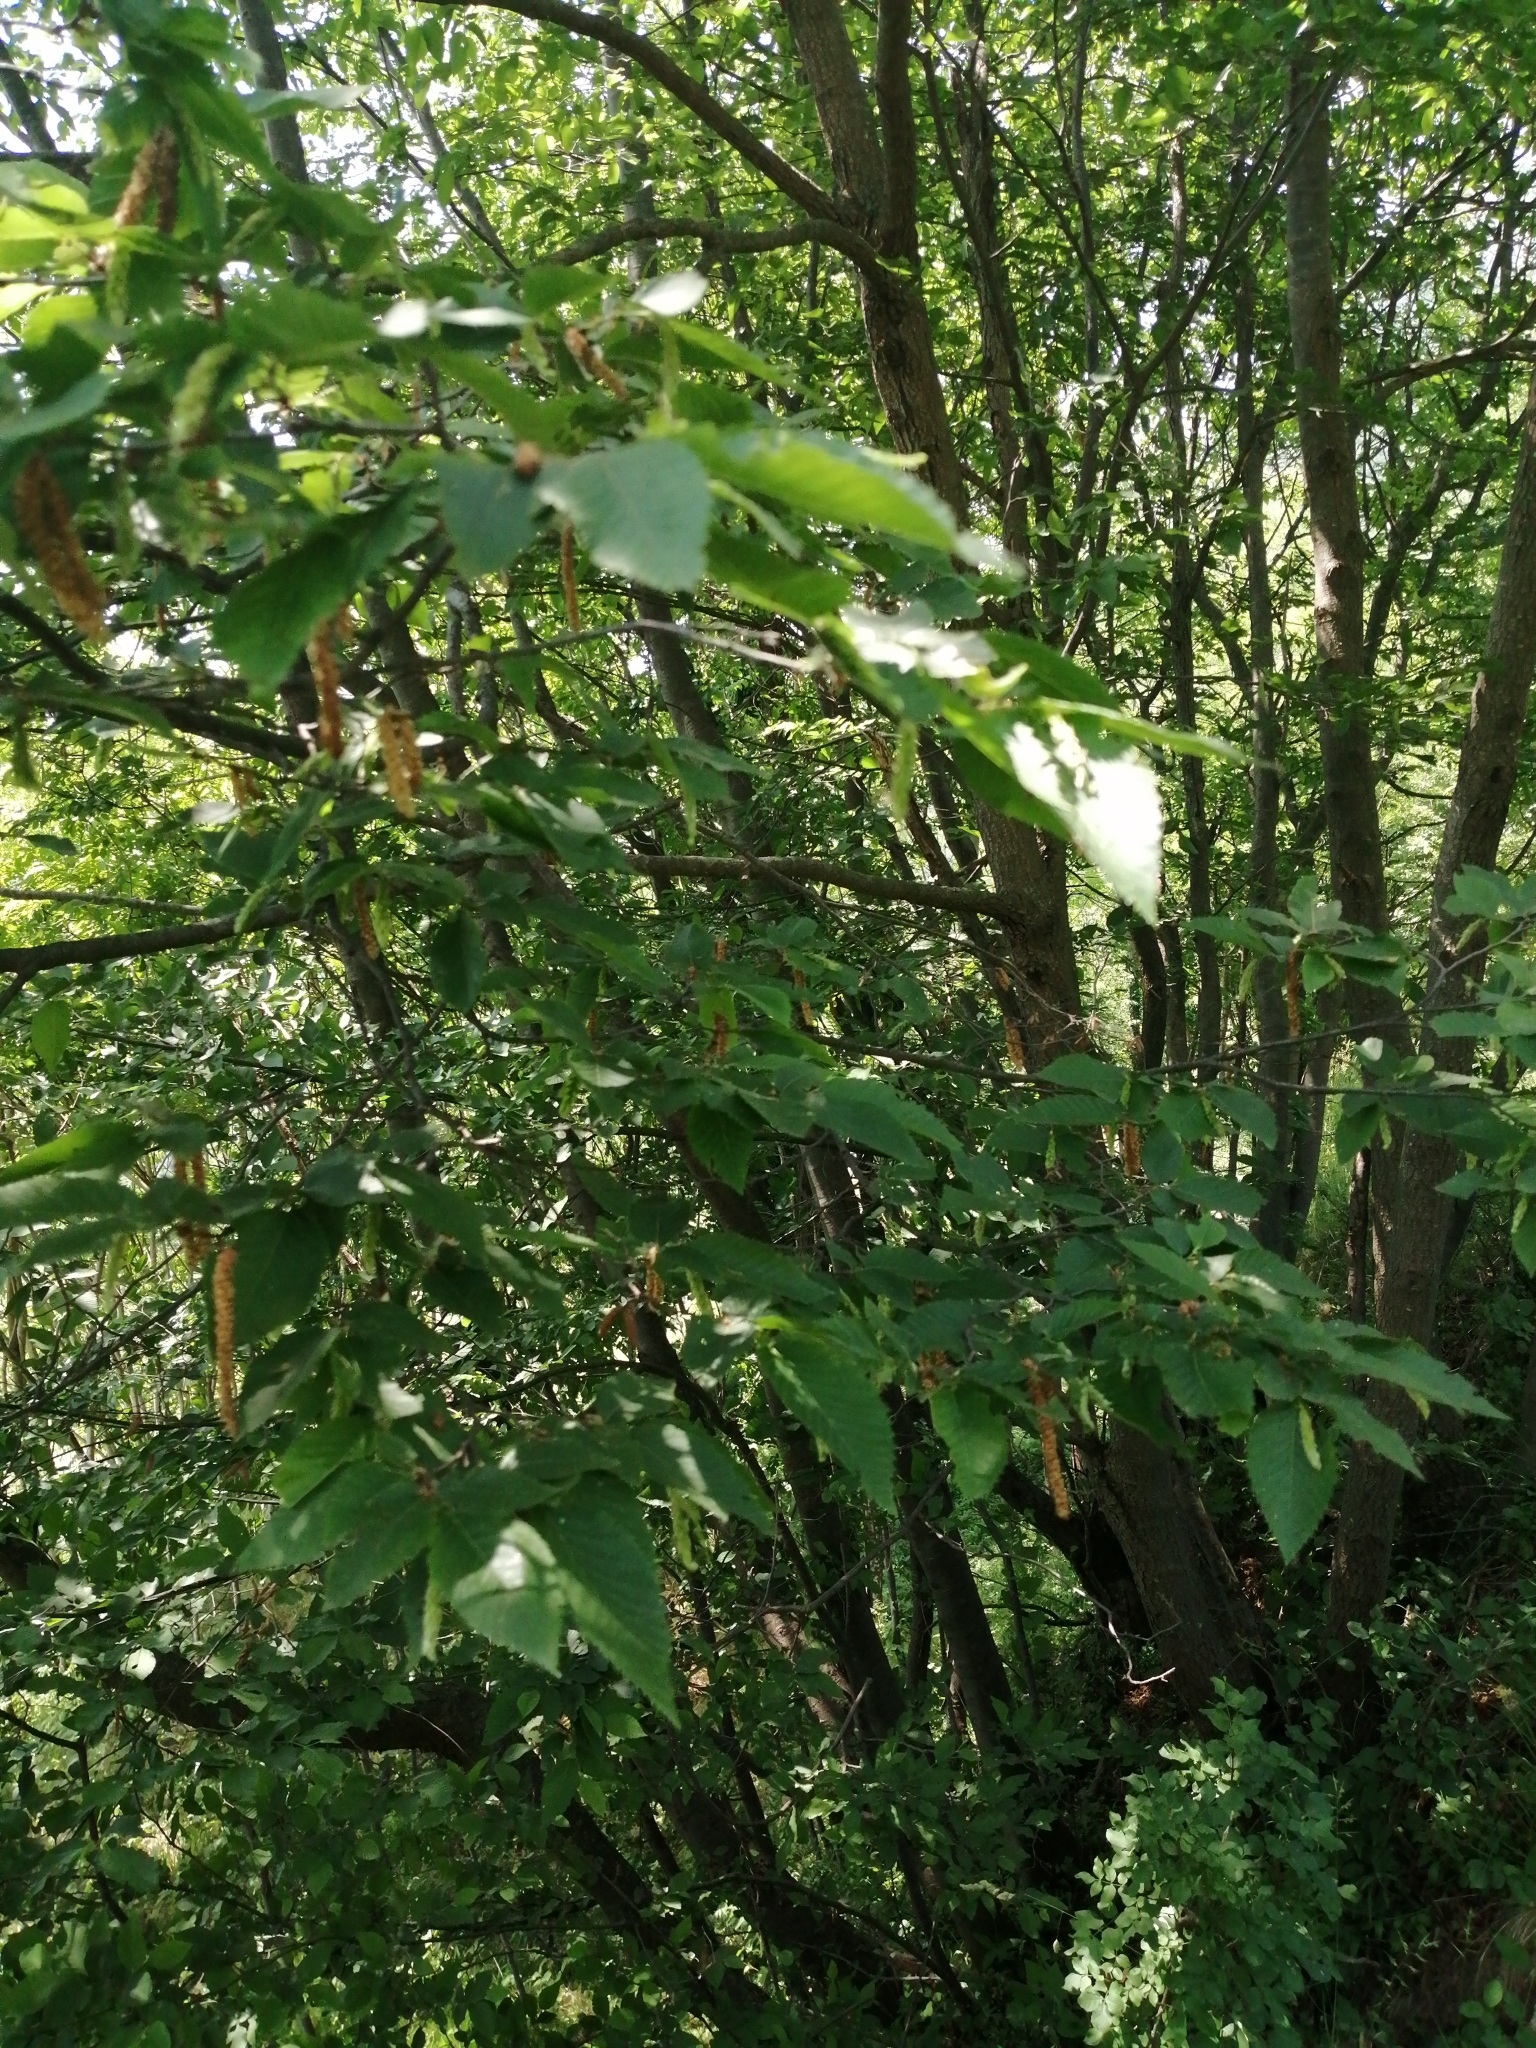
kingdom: Plantae
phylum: Tracheophyta
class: Magnoliopsida
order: Fagales
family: Betulaceae
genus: Ostrya
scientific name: Ostrya carpinifolia
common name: European hop-hornbeam
